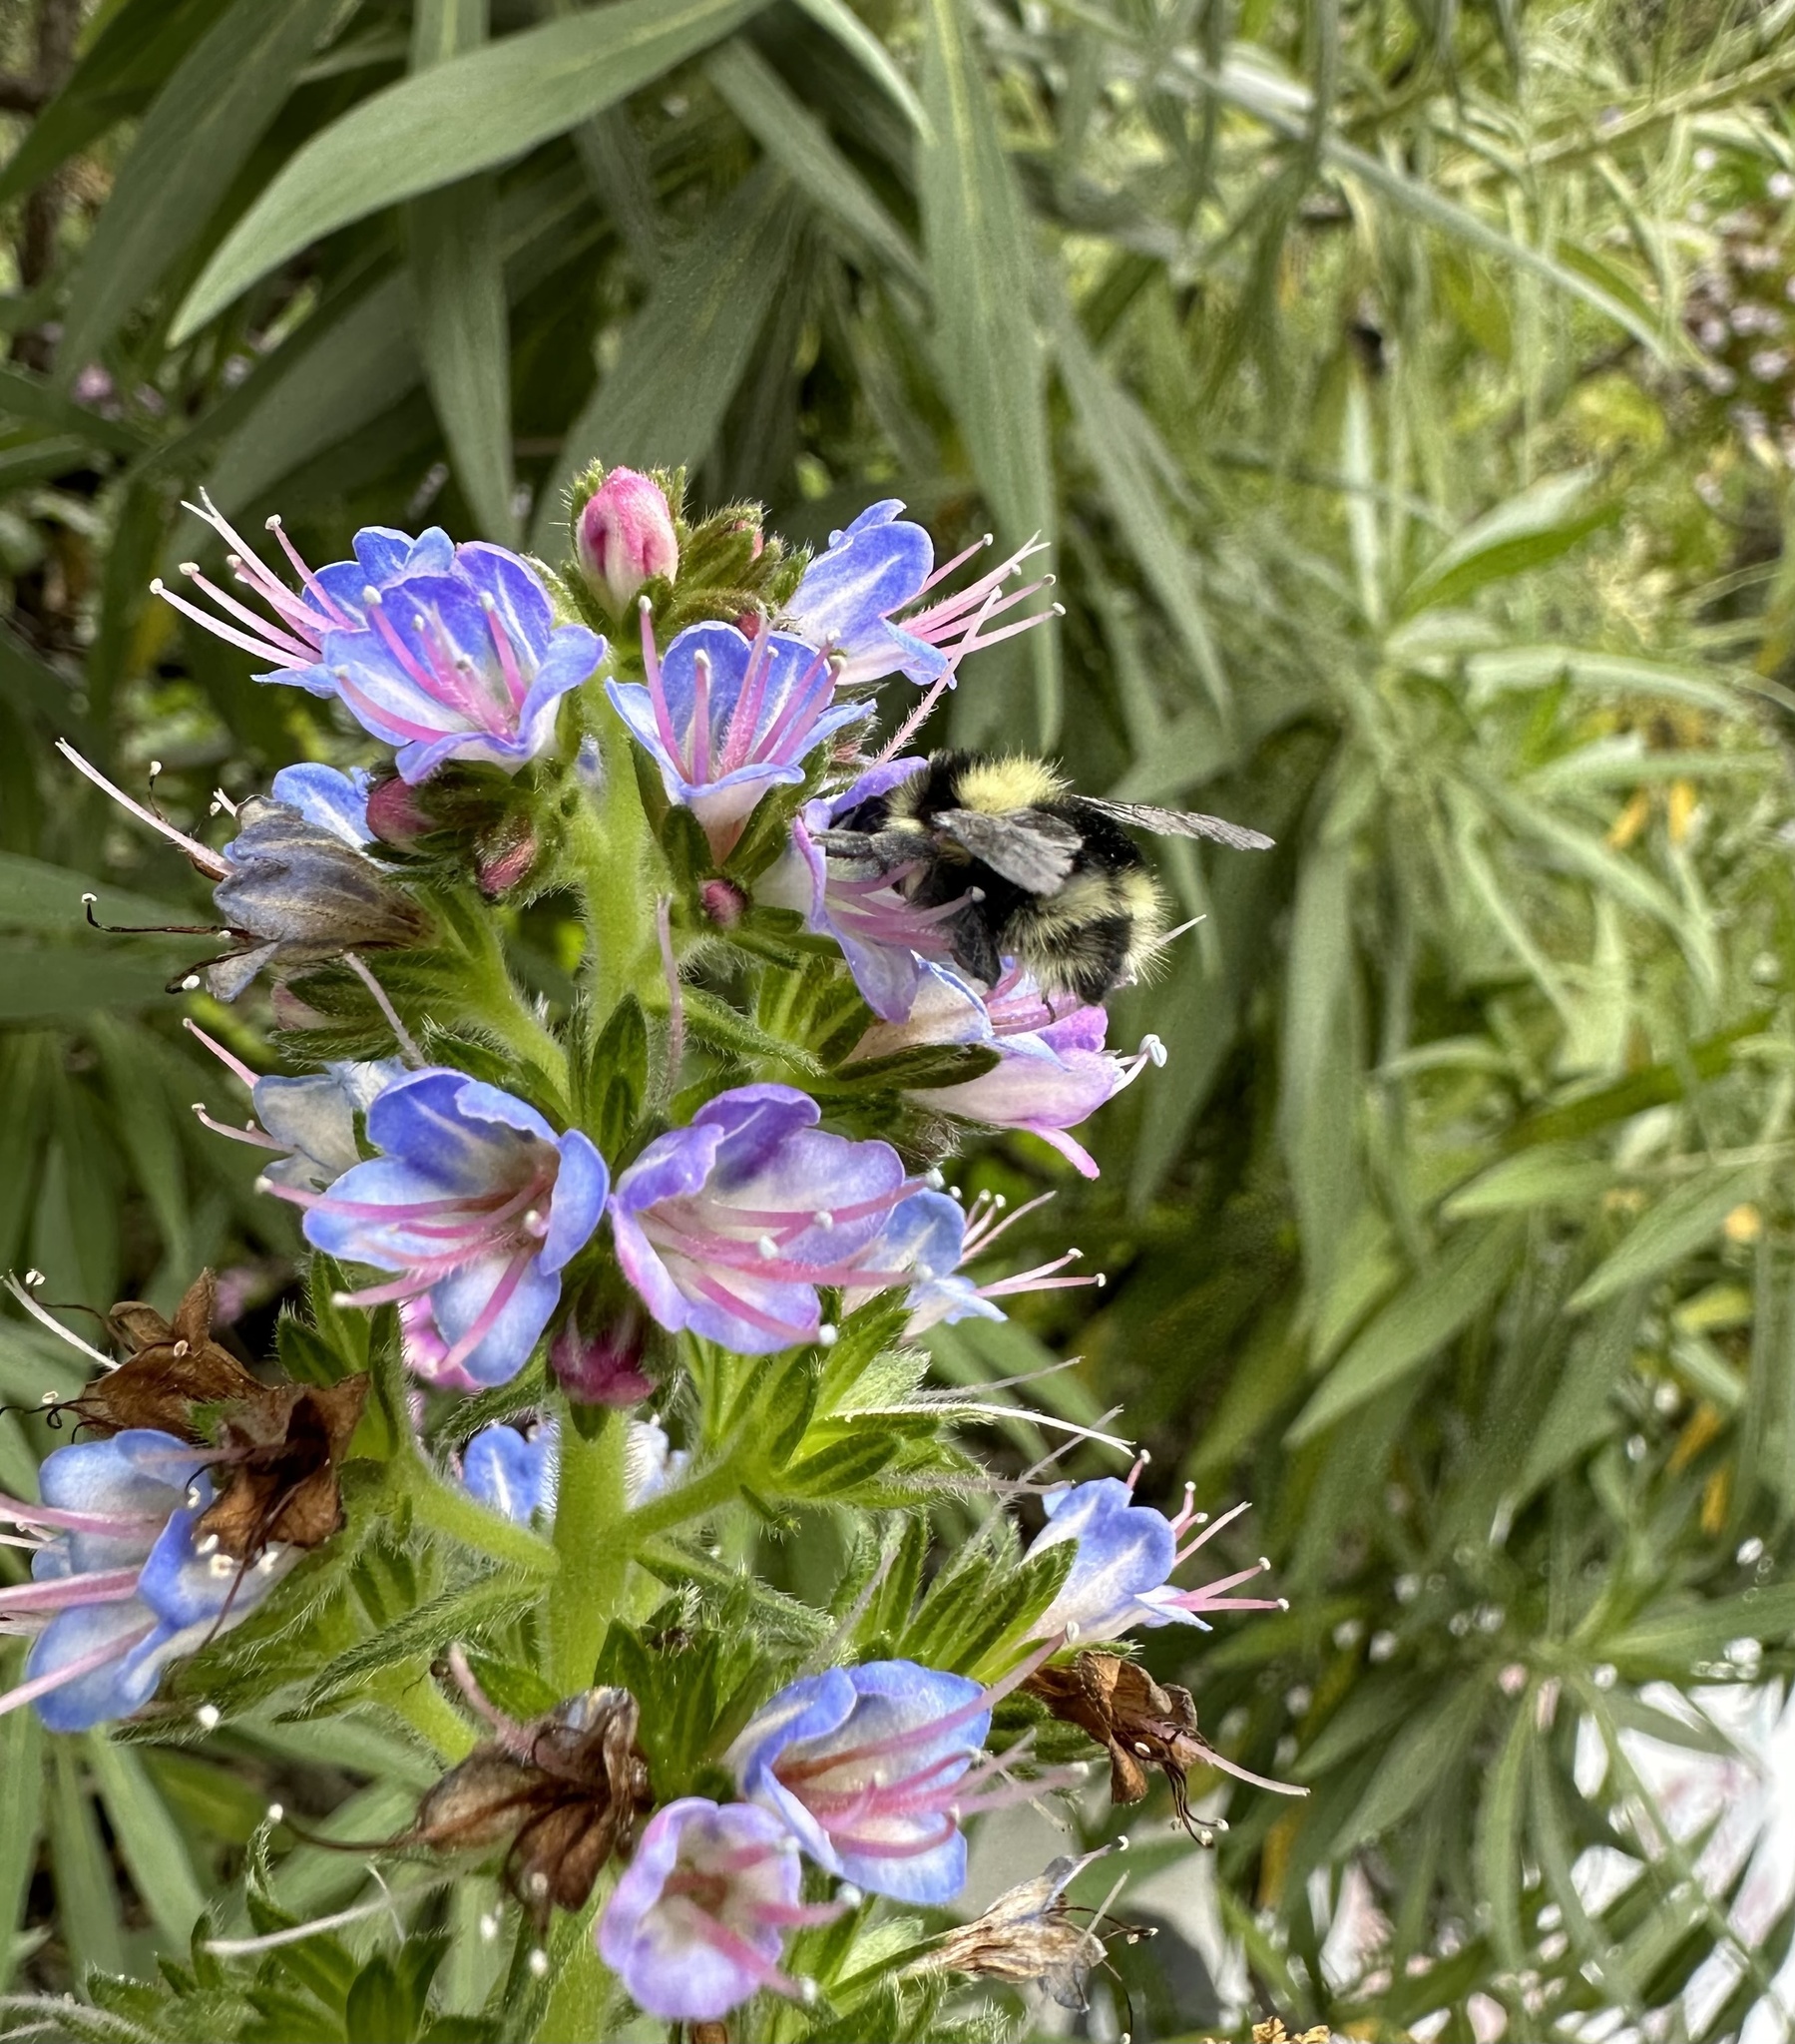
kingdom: Animalia
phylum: Arthropoda
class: Insecta
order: Hymenoptera
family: Apidae
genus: Bombus
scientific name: Bombus melanopygus
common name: Black tail bumble bee
